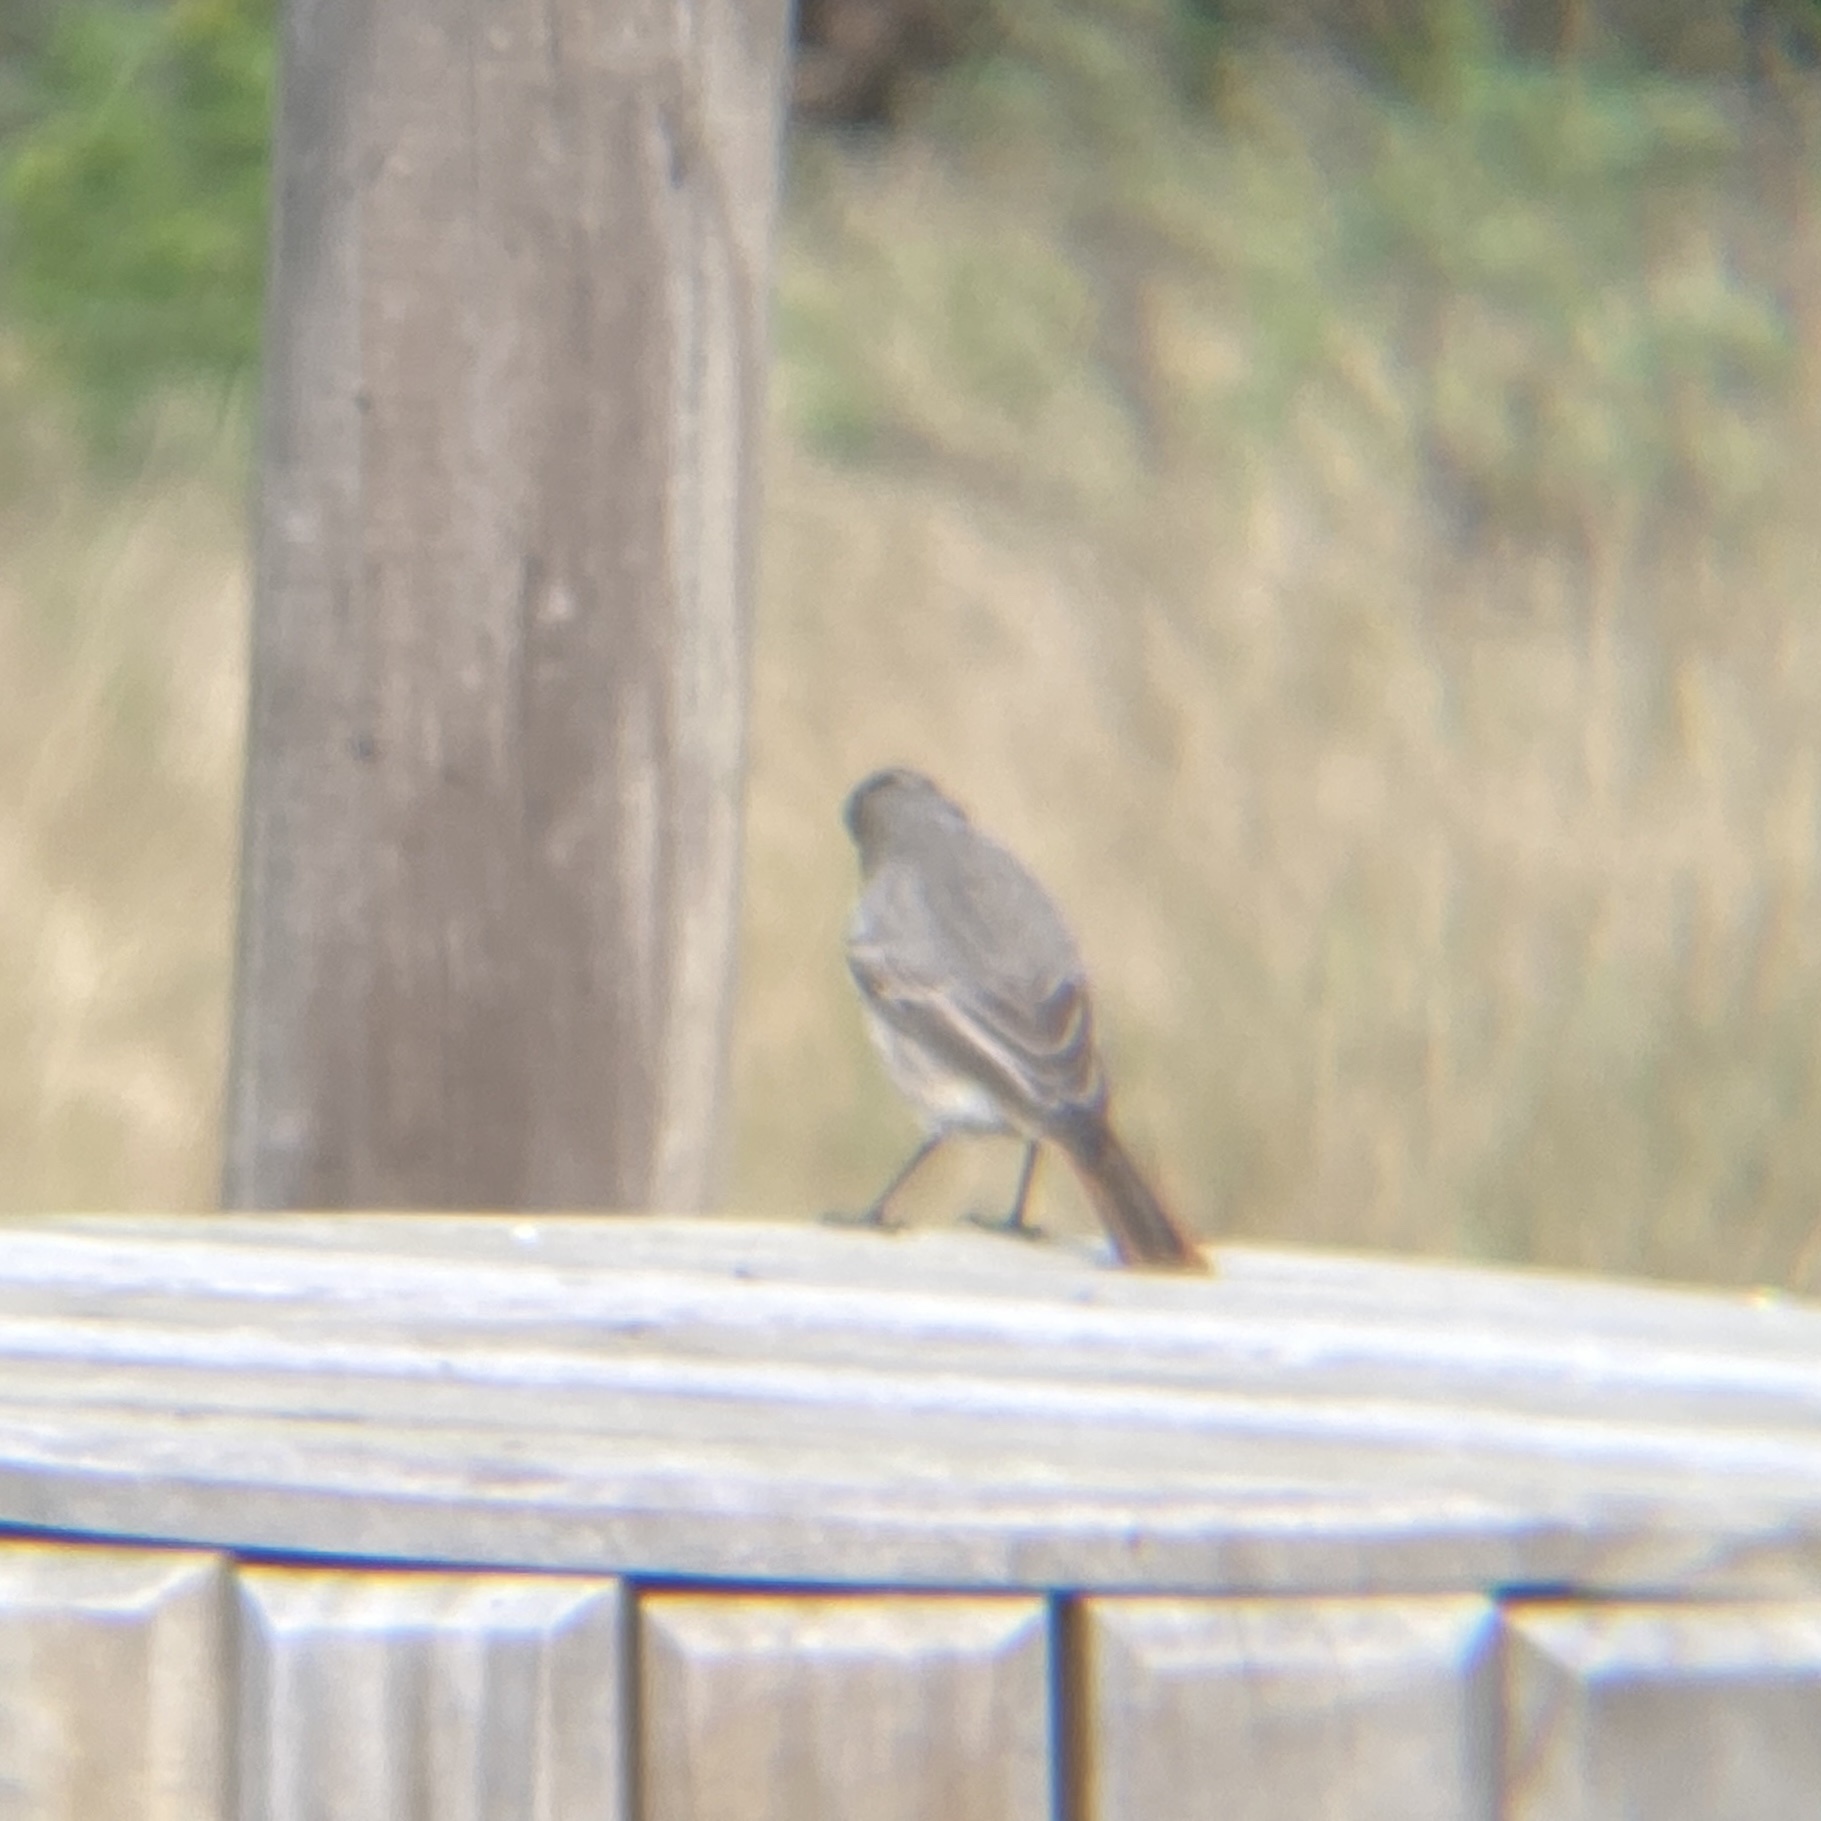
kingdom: Animalia
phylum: Chordata
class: Aves
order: Passeriformes
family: Muscicapidae
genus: Phoenicurus
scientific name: Phoenicurus ochruros
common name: Black redstart
